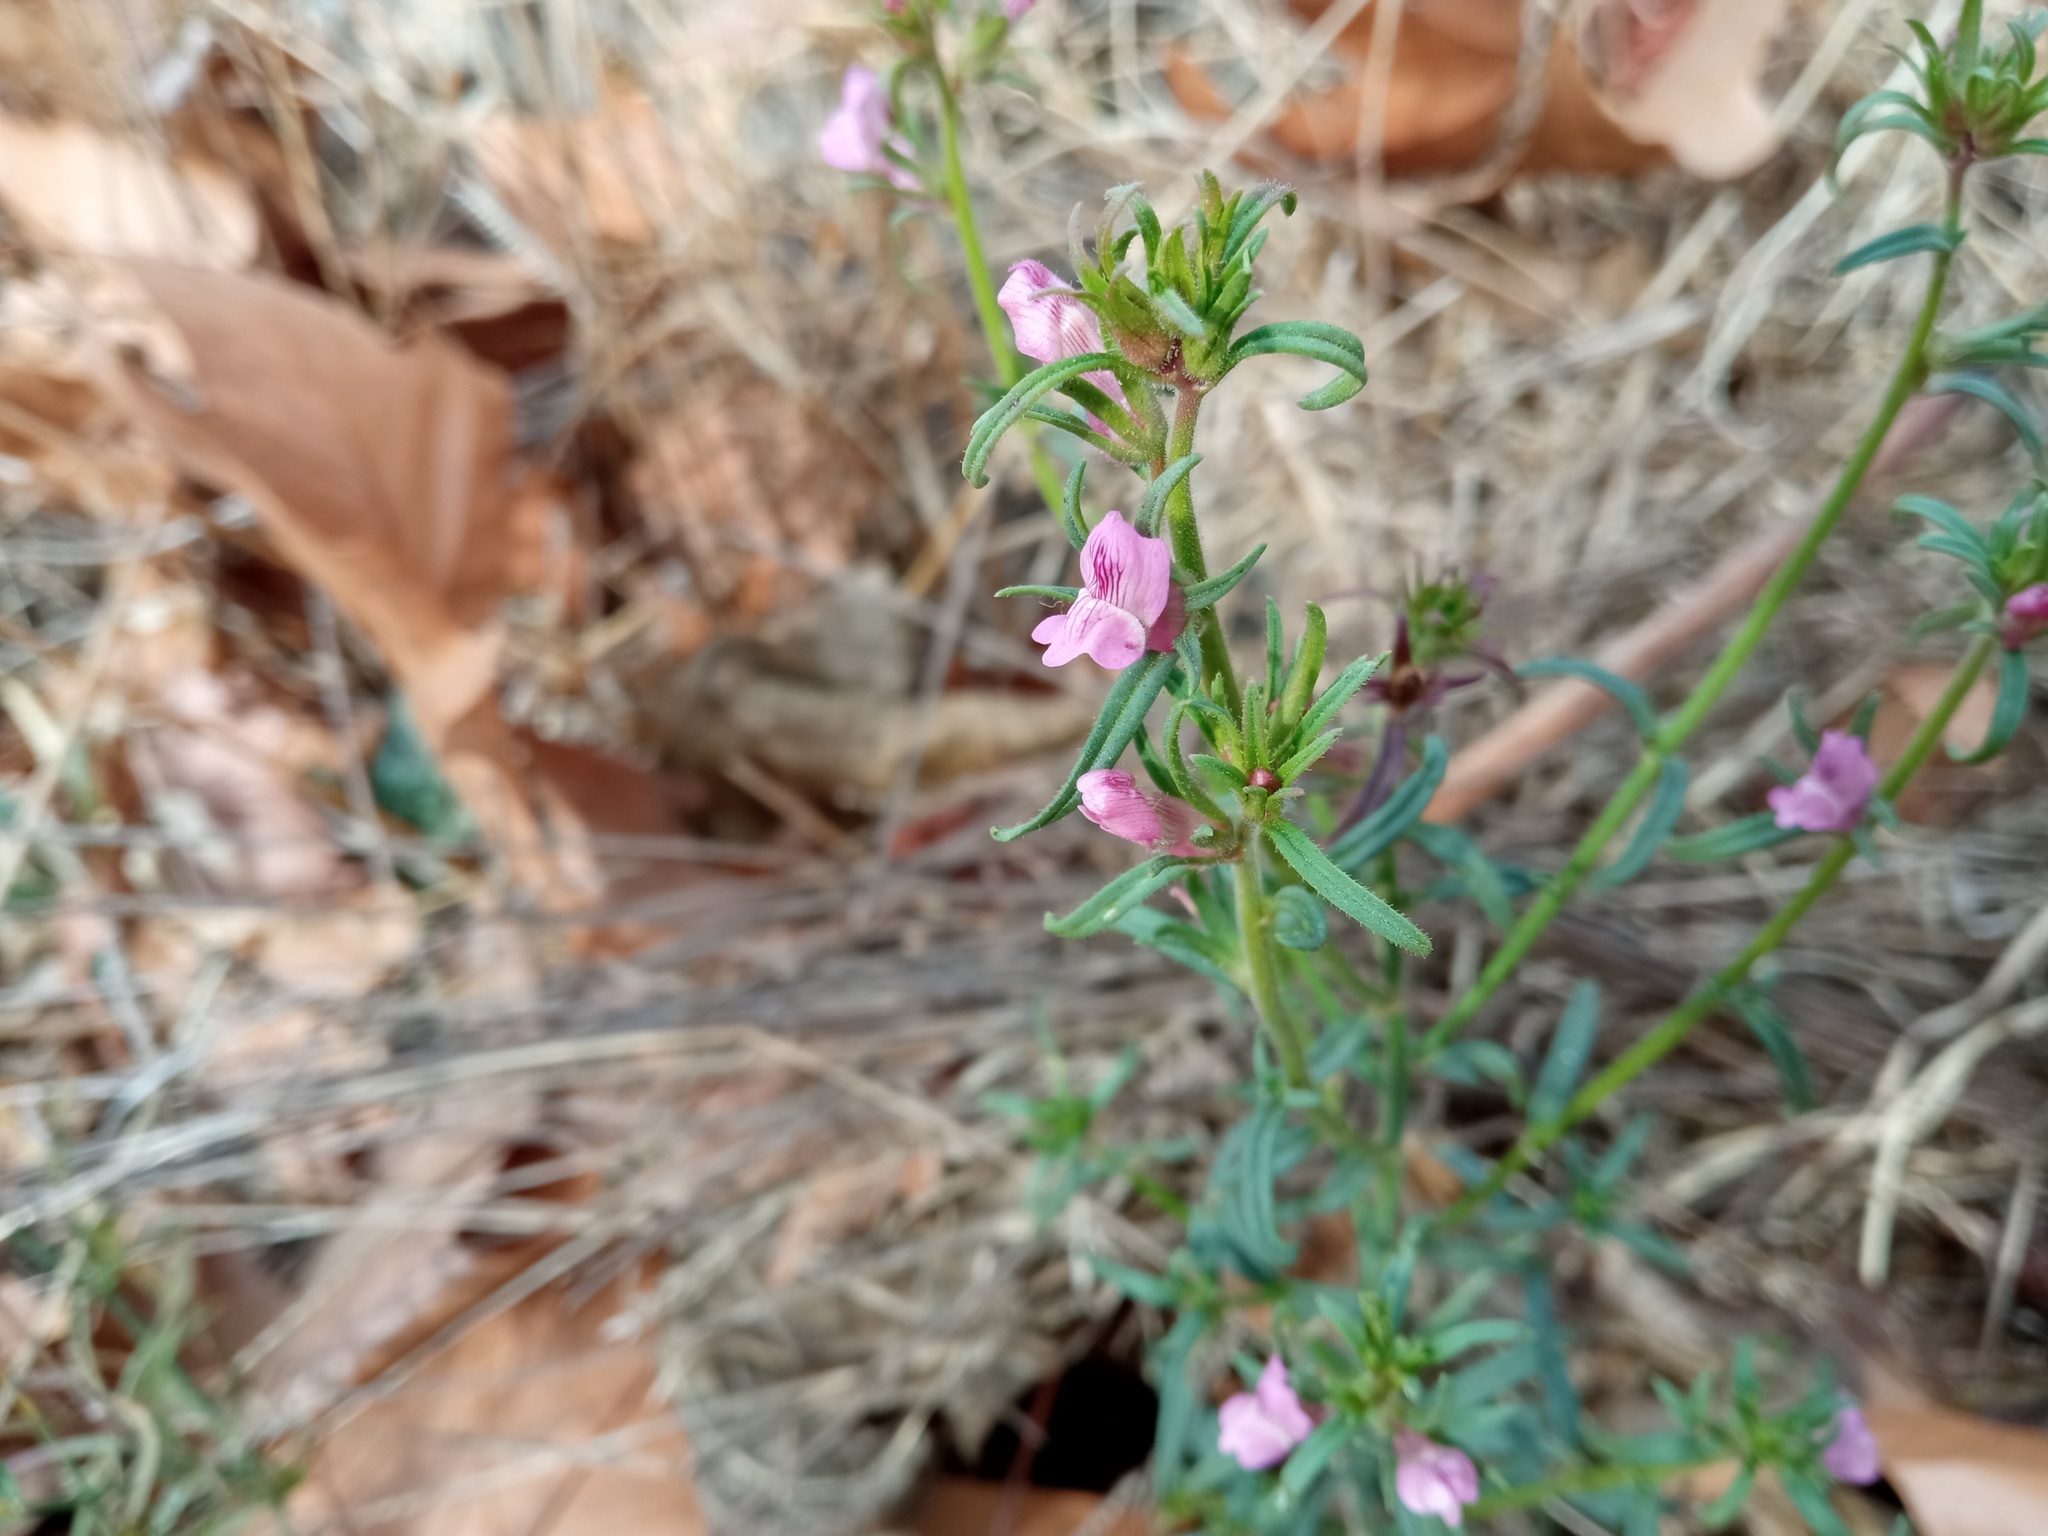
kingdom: Plantae
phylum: Tracheophyta
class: Magnoliopsida
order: Lamiales
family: Plantaginaceae
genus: Misopates
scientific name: Misopates orontium
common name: Weasel's-snout
